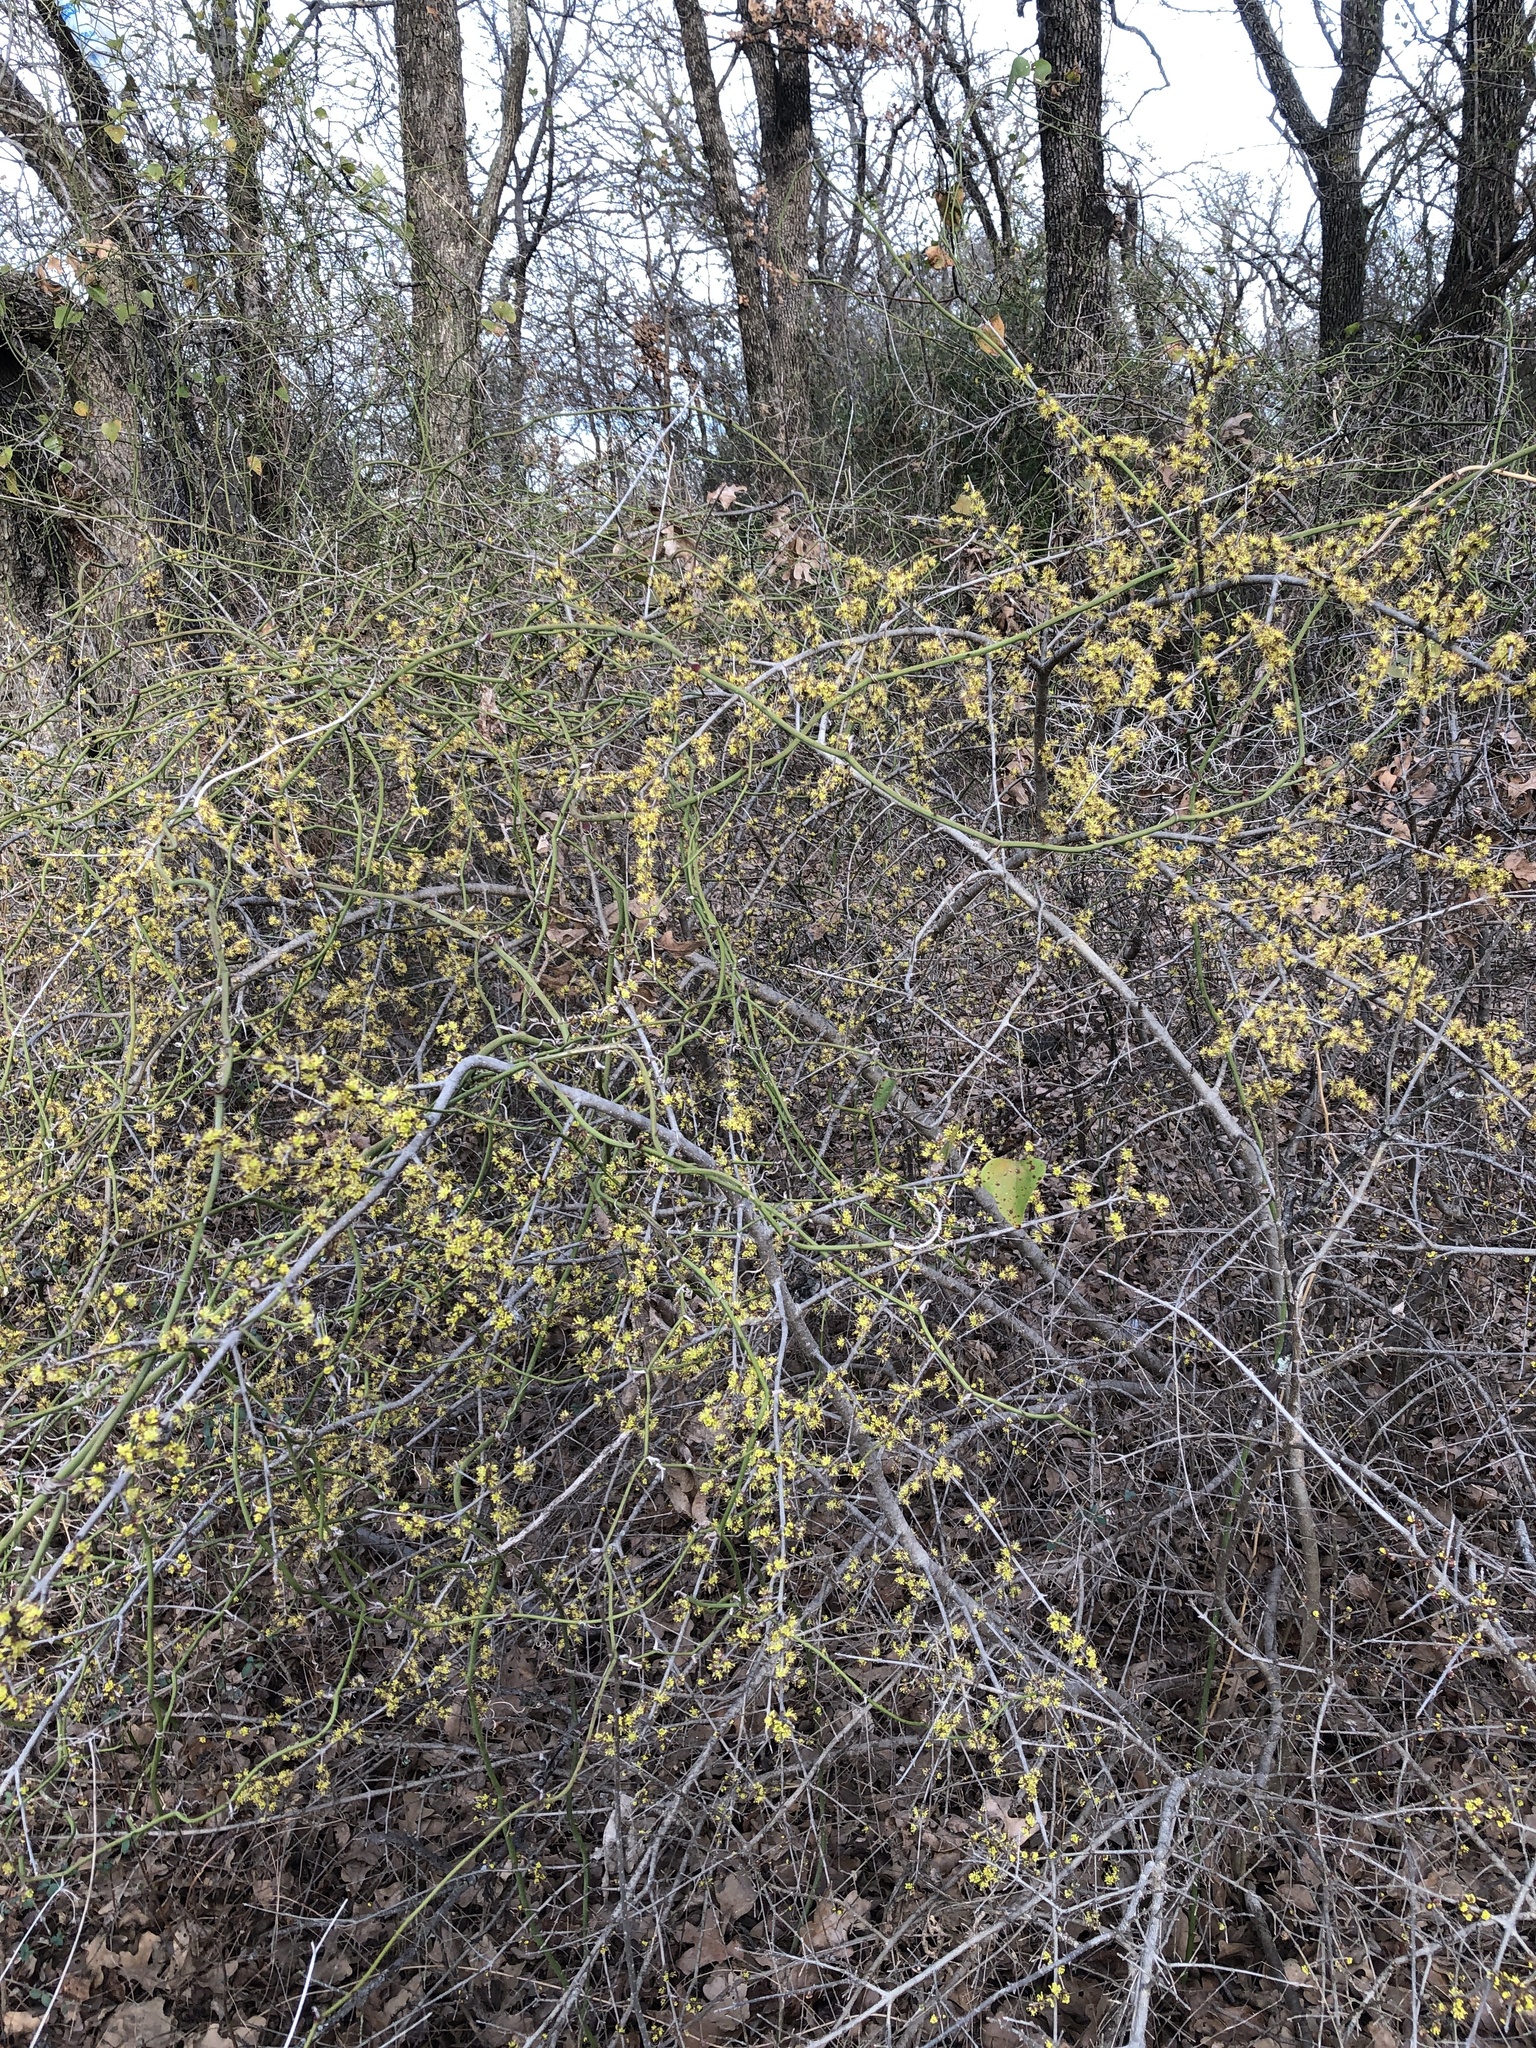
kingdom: Plantae
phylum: Tracheophyta
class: Magnoliopsida
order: Lamiales
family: Oleaceae
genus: Forestiera
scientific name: Forestiera pubescens
